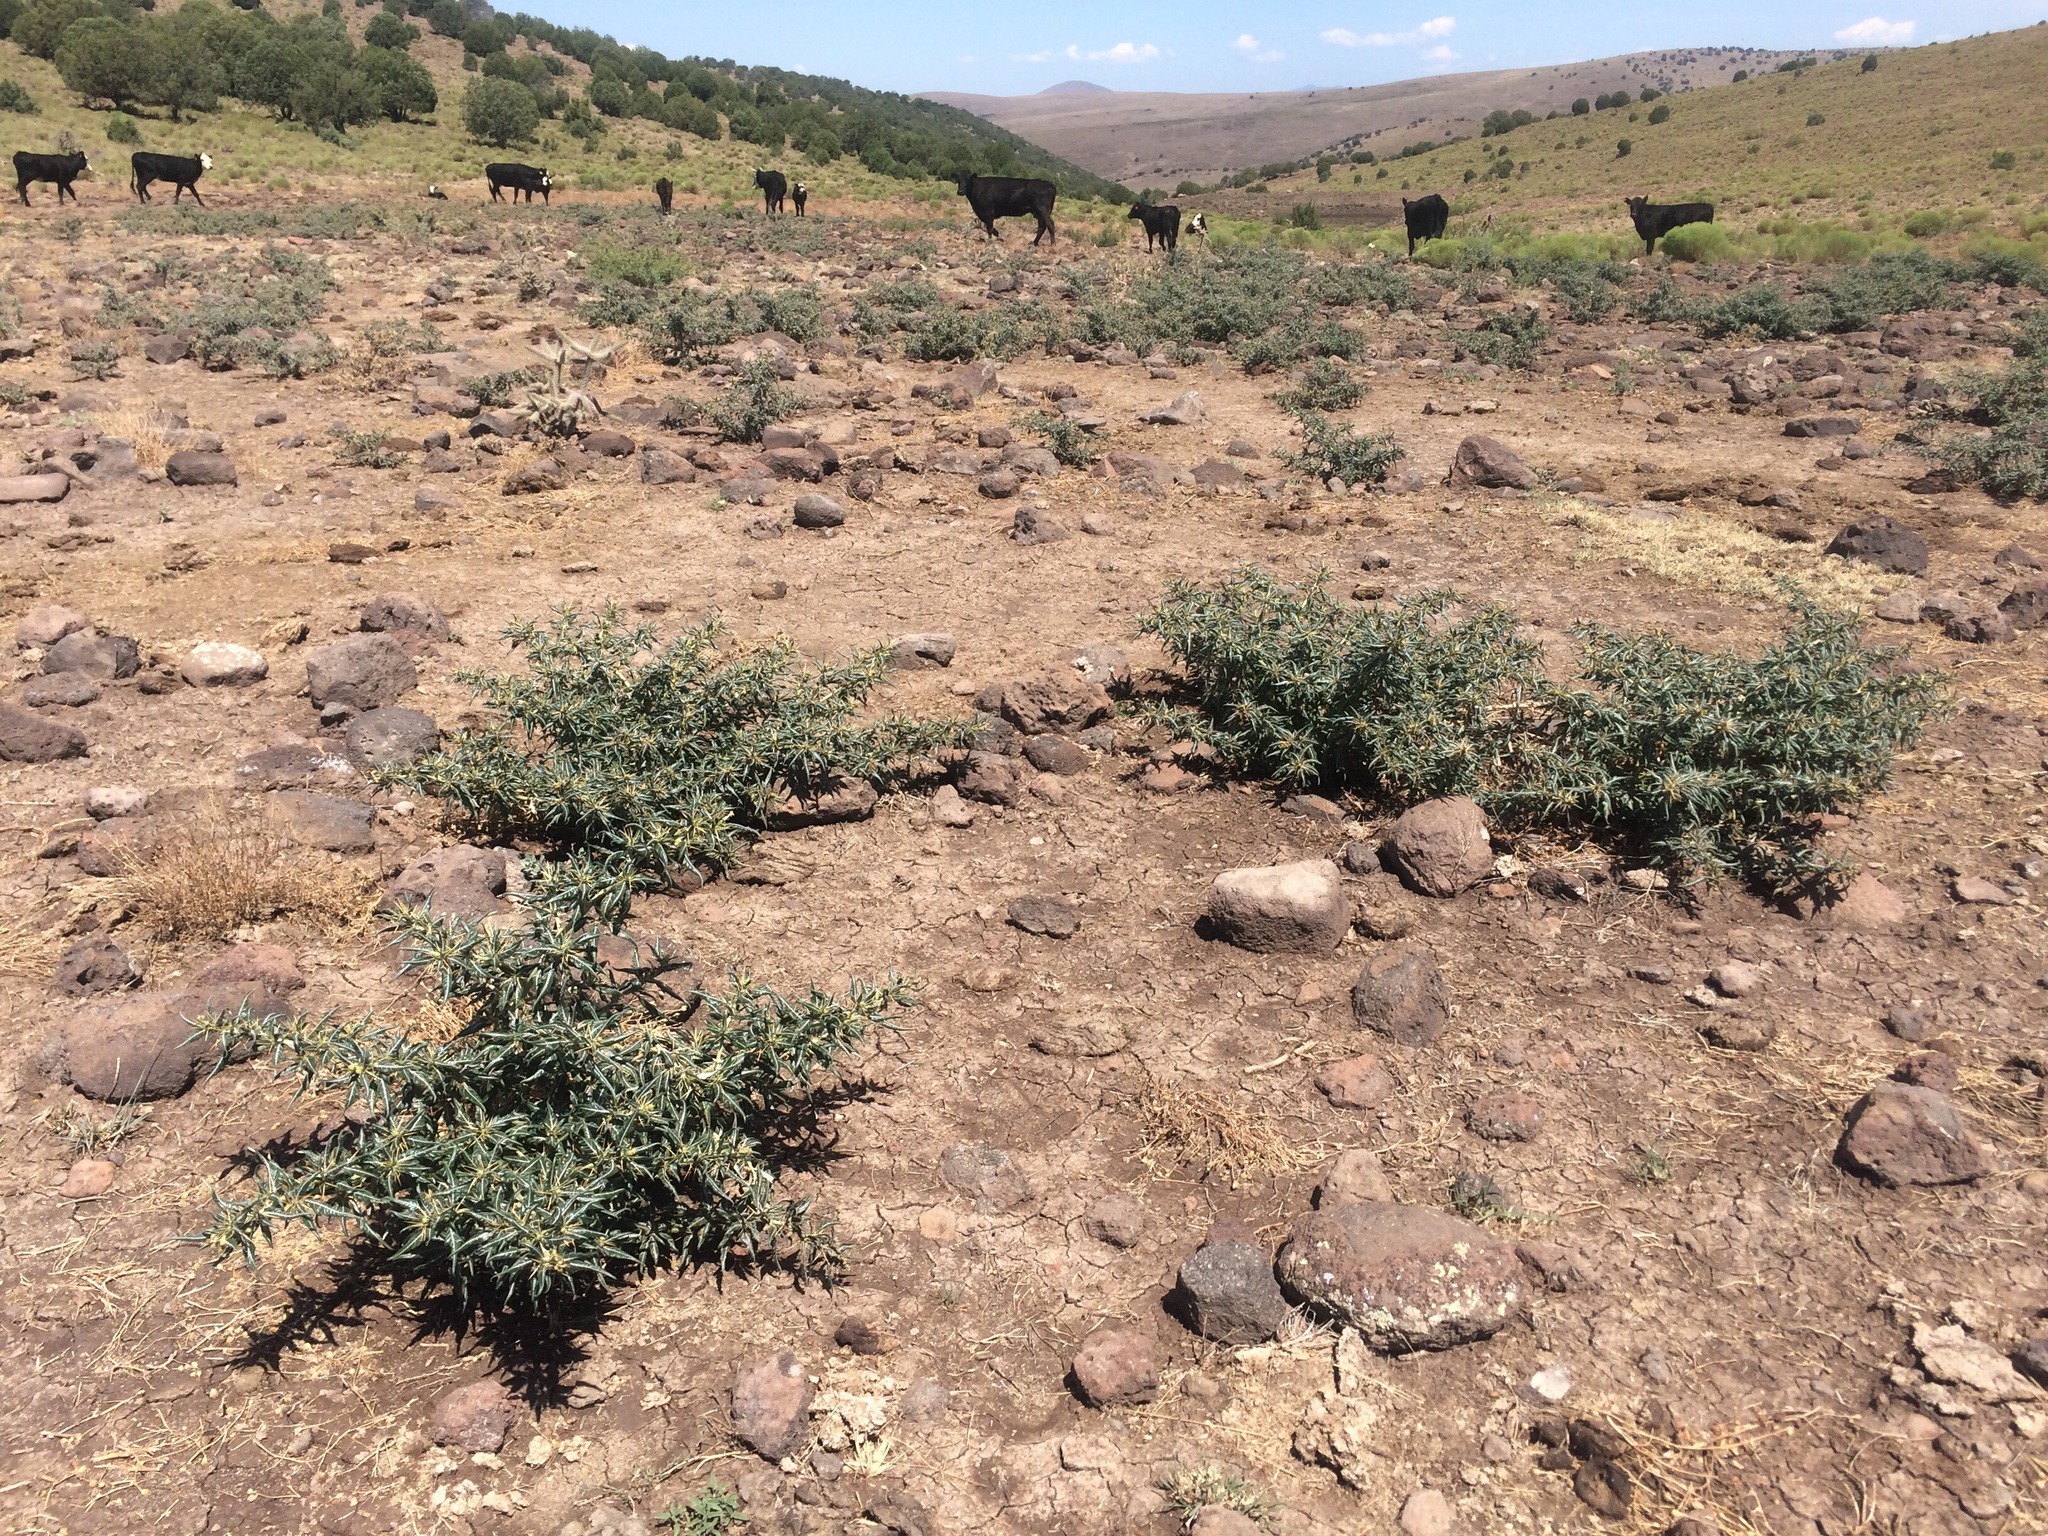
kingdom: Plantae
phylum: Tracheophyta
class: Magnoliopsida
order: Asterales
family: Asteraceae
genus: Xanthium
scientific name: Xanthium spinosum
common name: Spiny cocklebur
